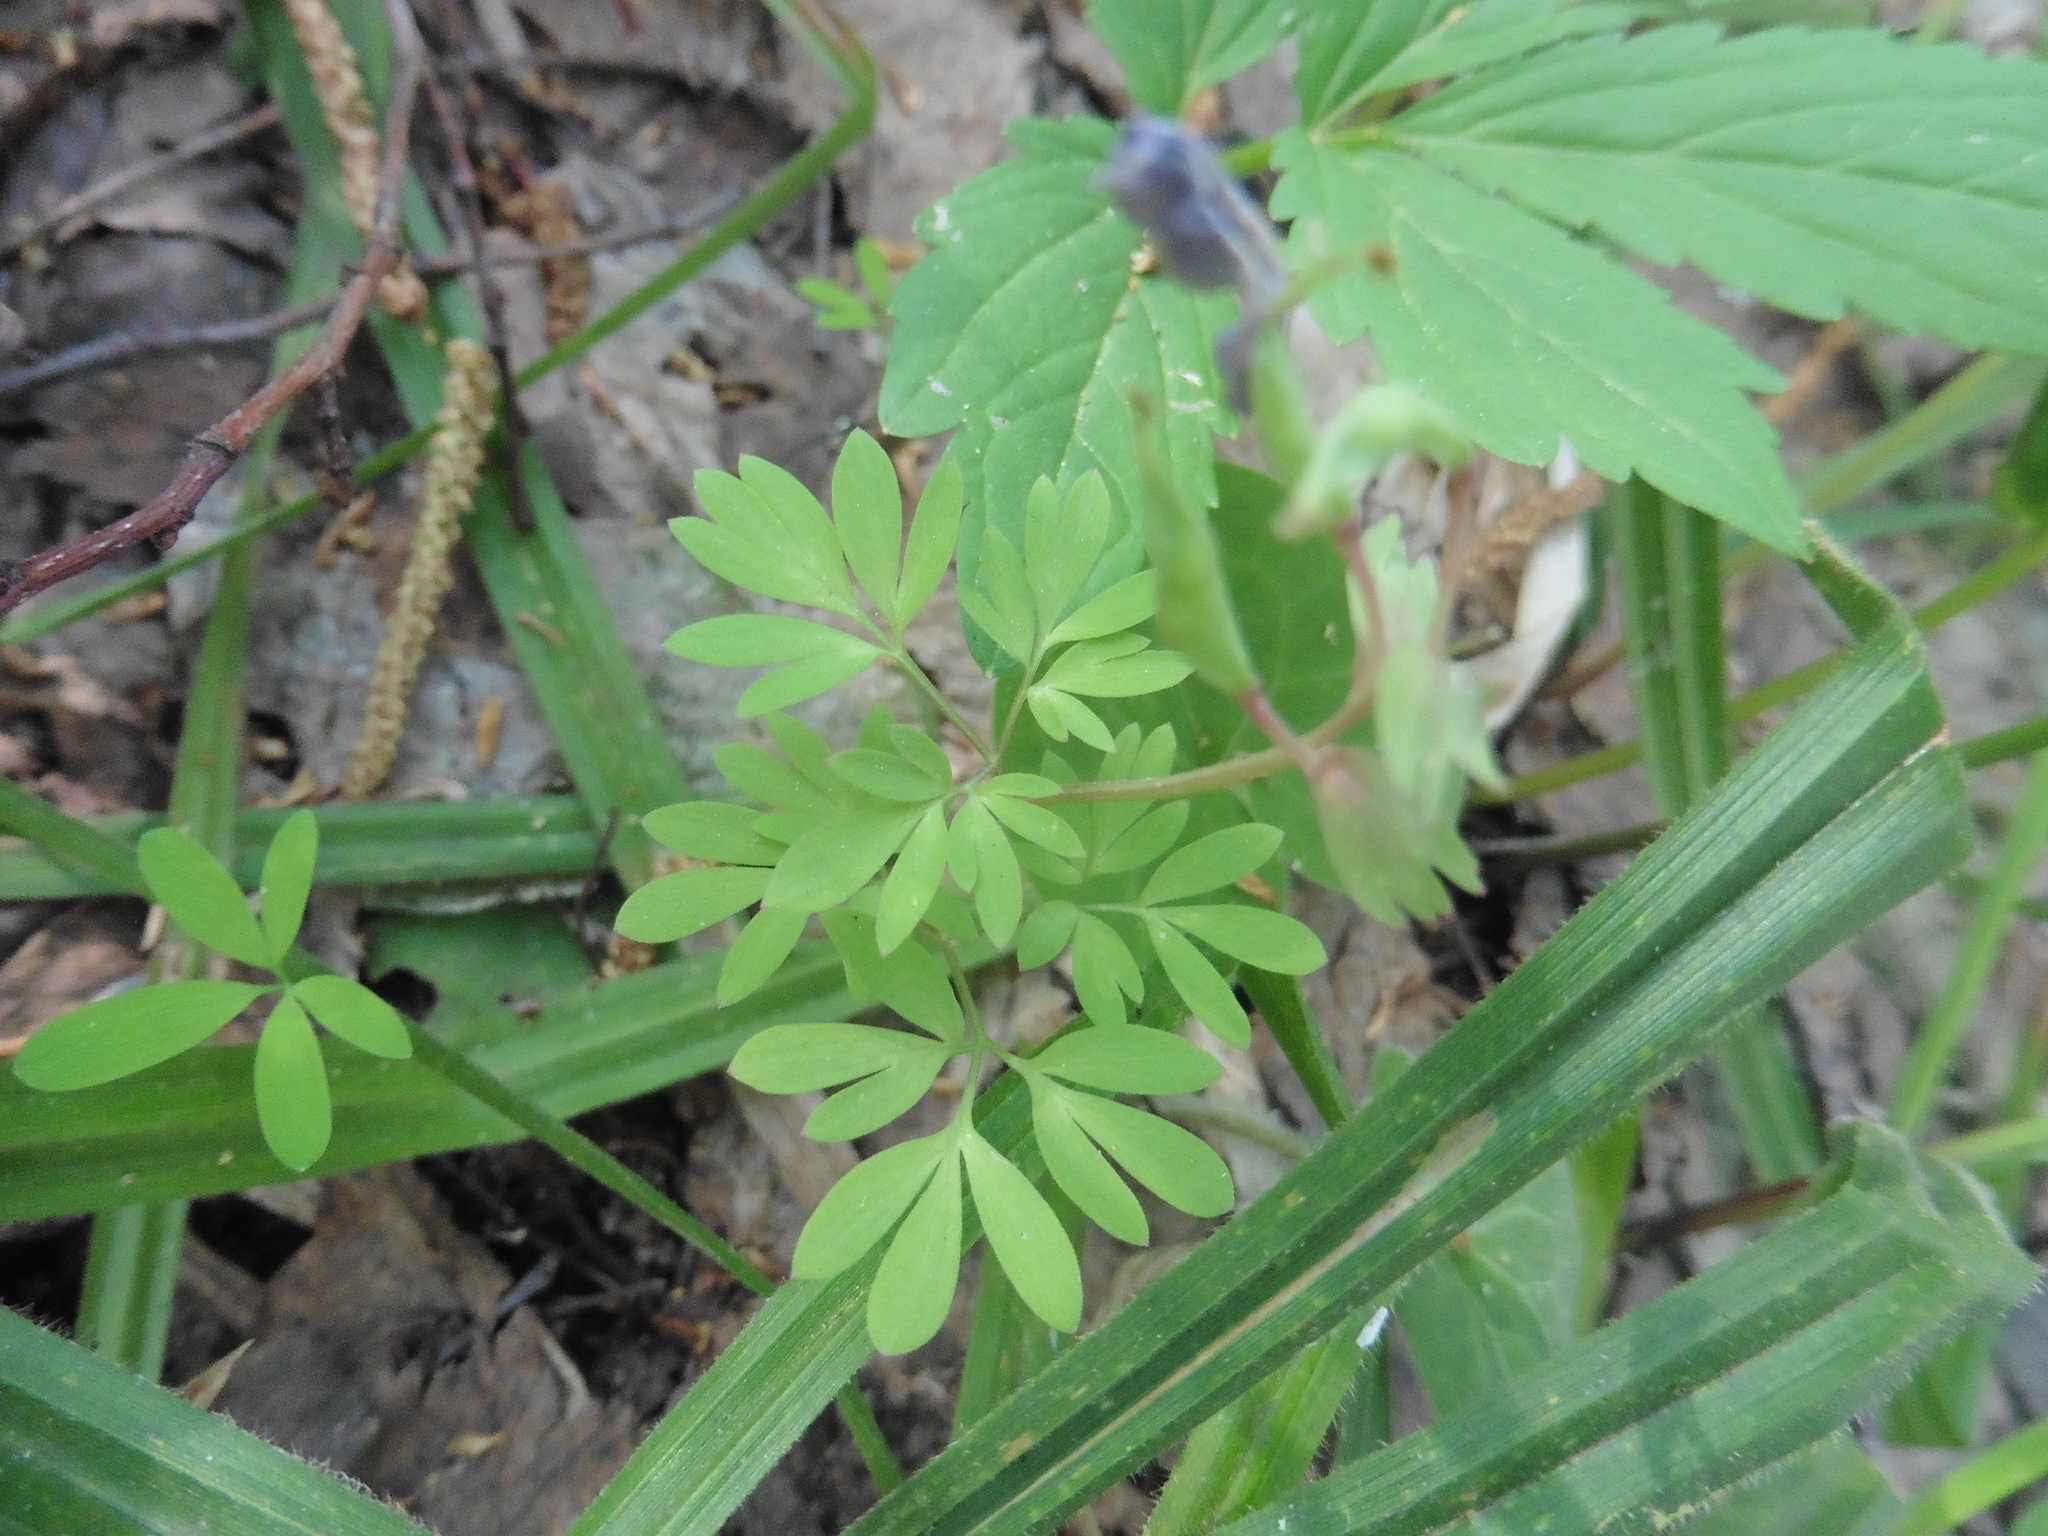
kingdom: Plantae
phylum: Tracheophyta
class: Magnoliopsida
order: Ranunculales
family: Papaveraceae
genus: Corydalis
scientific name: Corydalis solida
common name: Bird-in-a-bush
